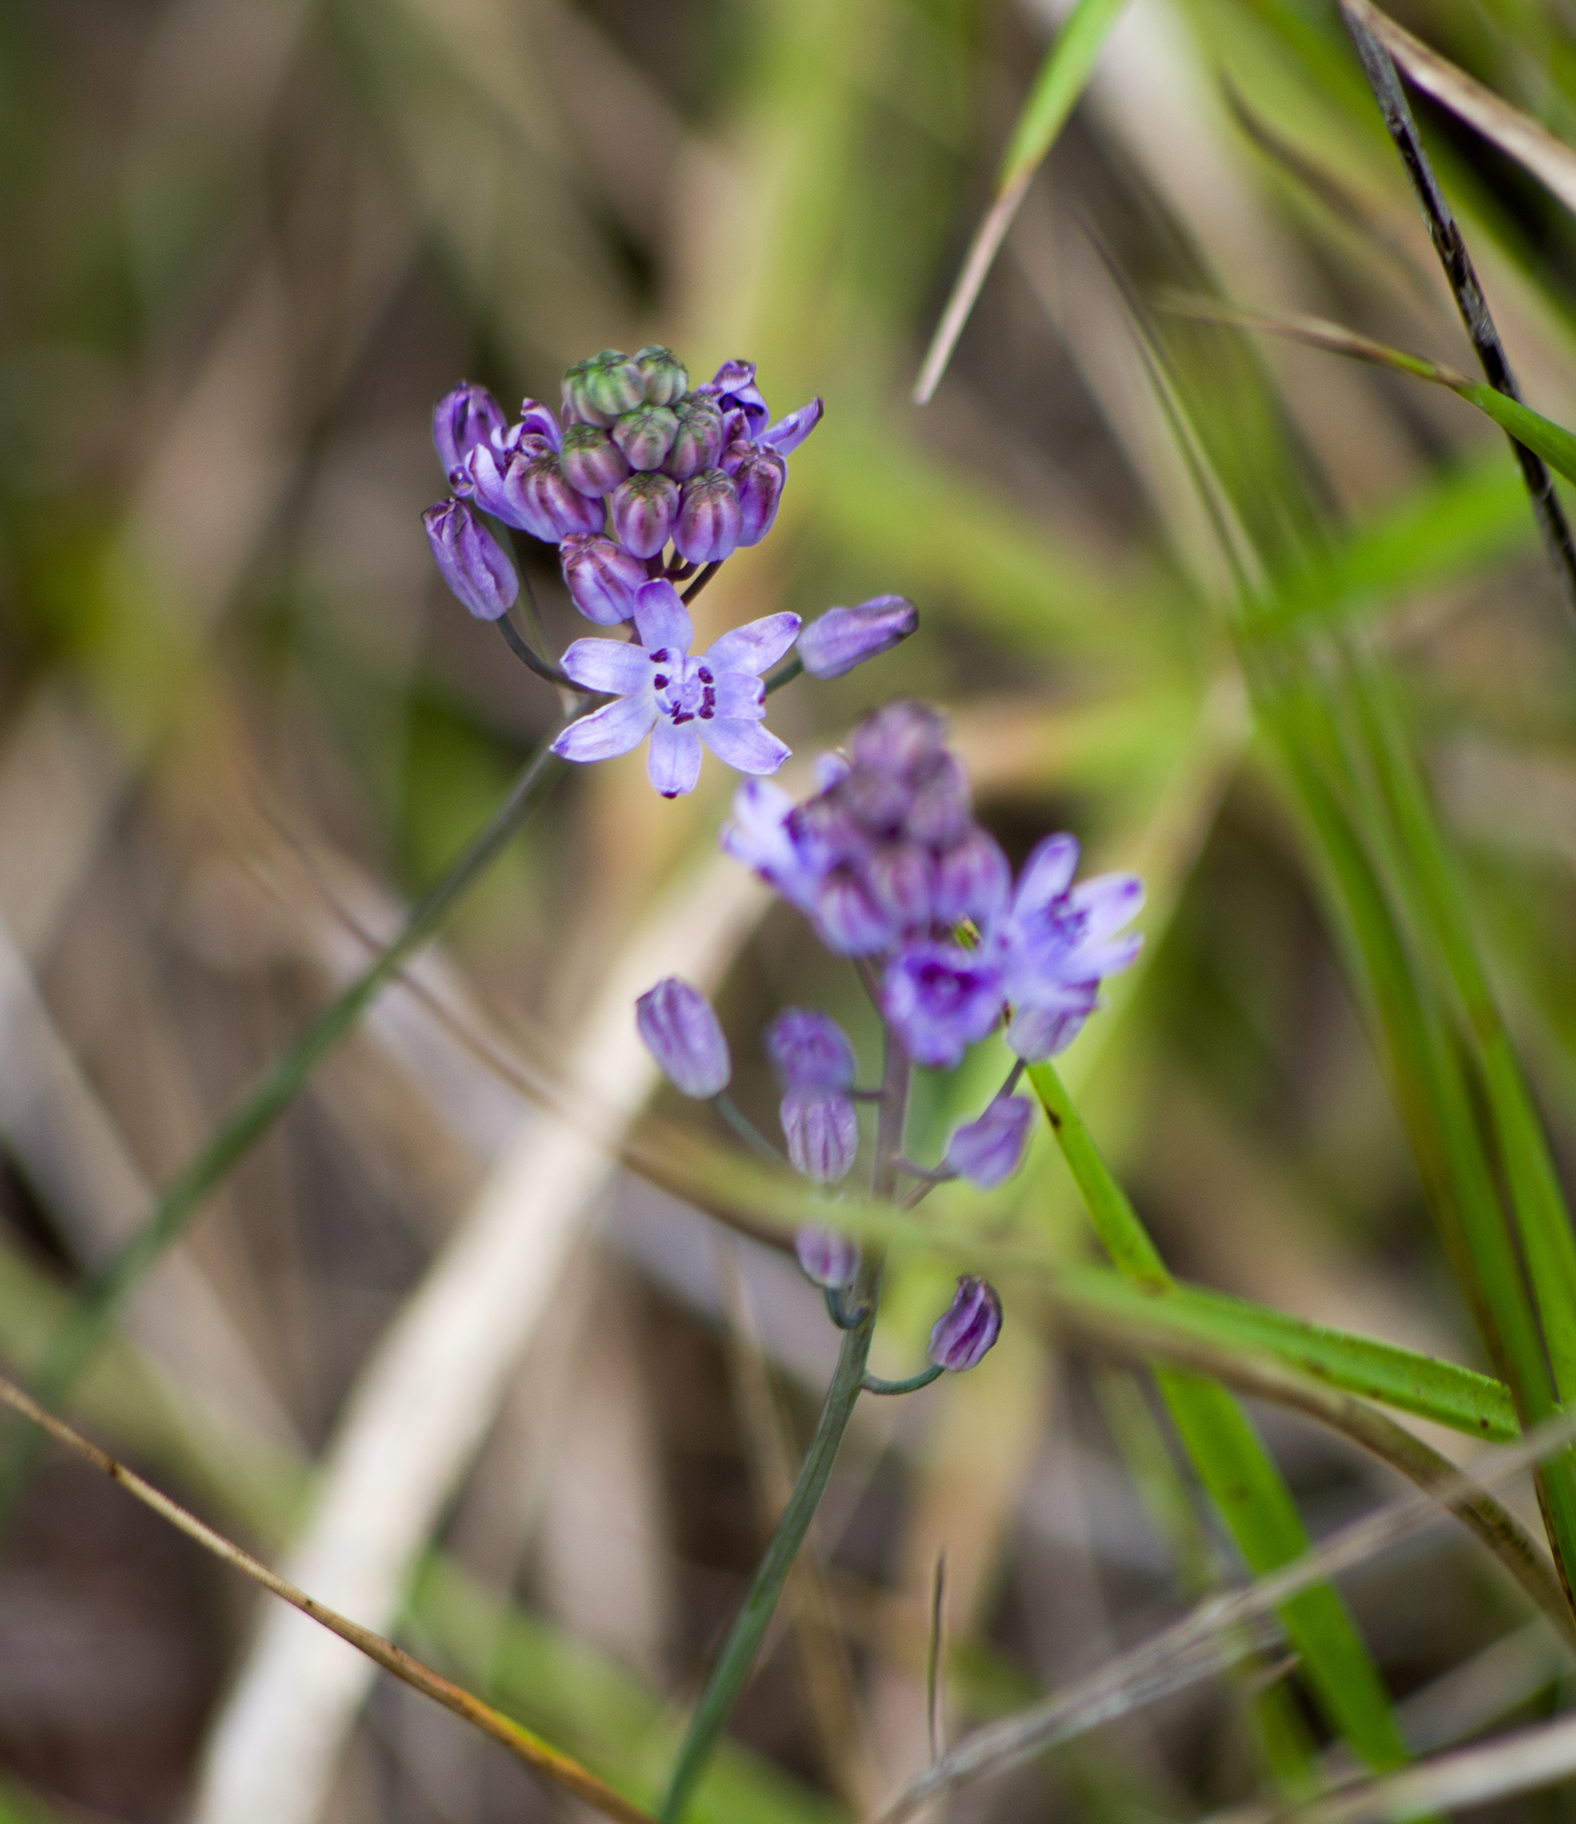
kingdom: Plantae
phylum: Tracheophyta
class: Liliopsida
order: Asparagales
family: Asparagaceae
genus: Prospero
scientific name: Prospero autumnale
